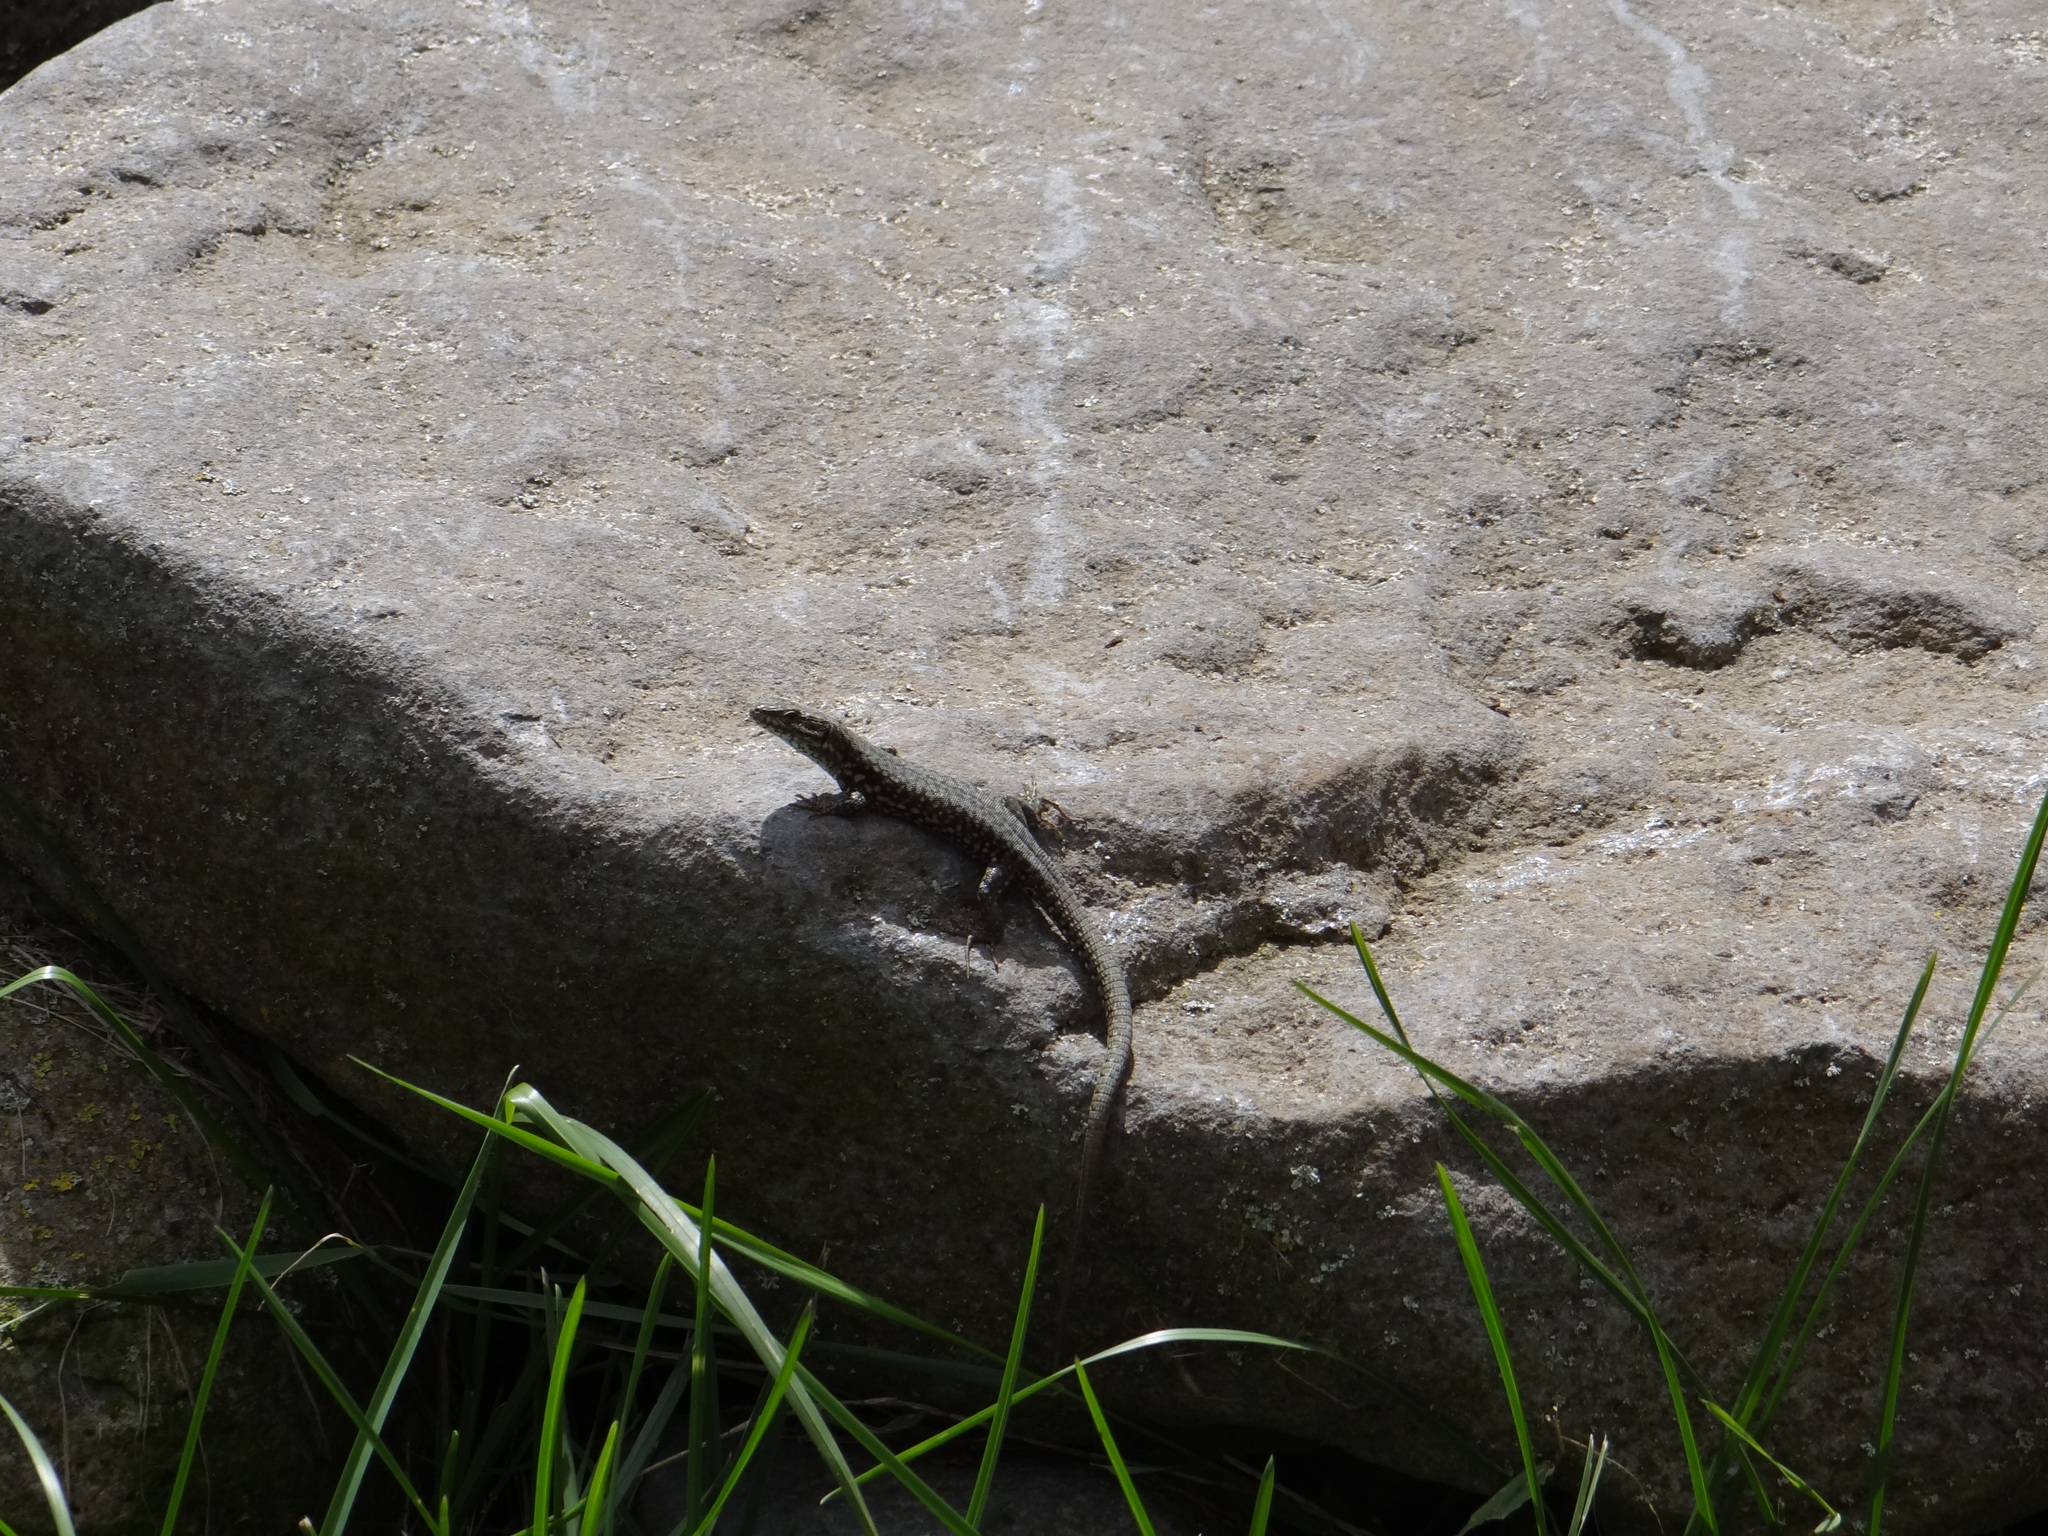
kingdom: Animalia
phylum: Chordata
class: Squamata
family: Lacertidae
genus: Podarcis
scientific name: Podarcis muralis
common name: Common wall lizard
